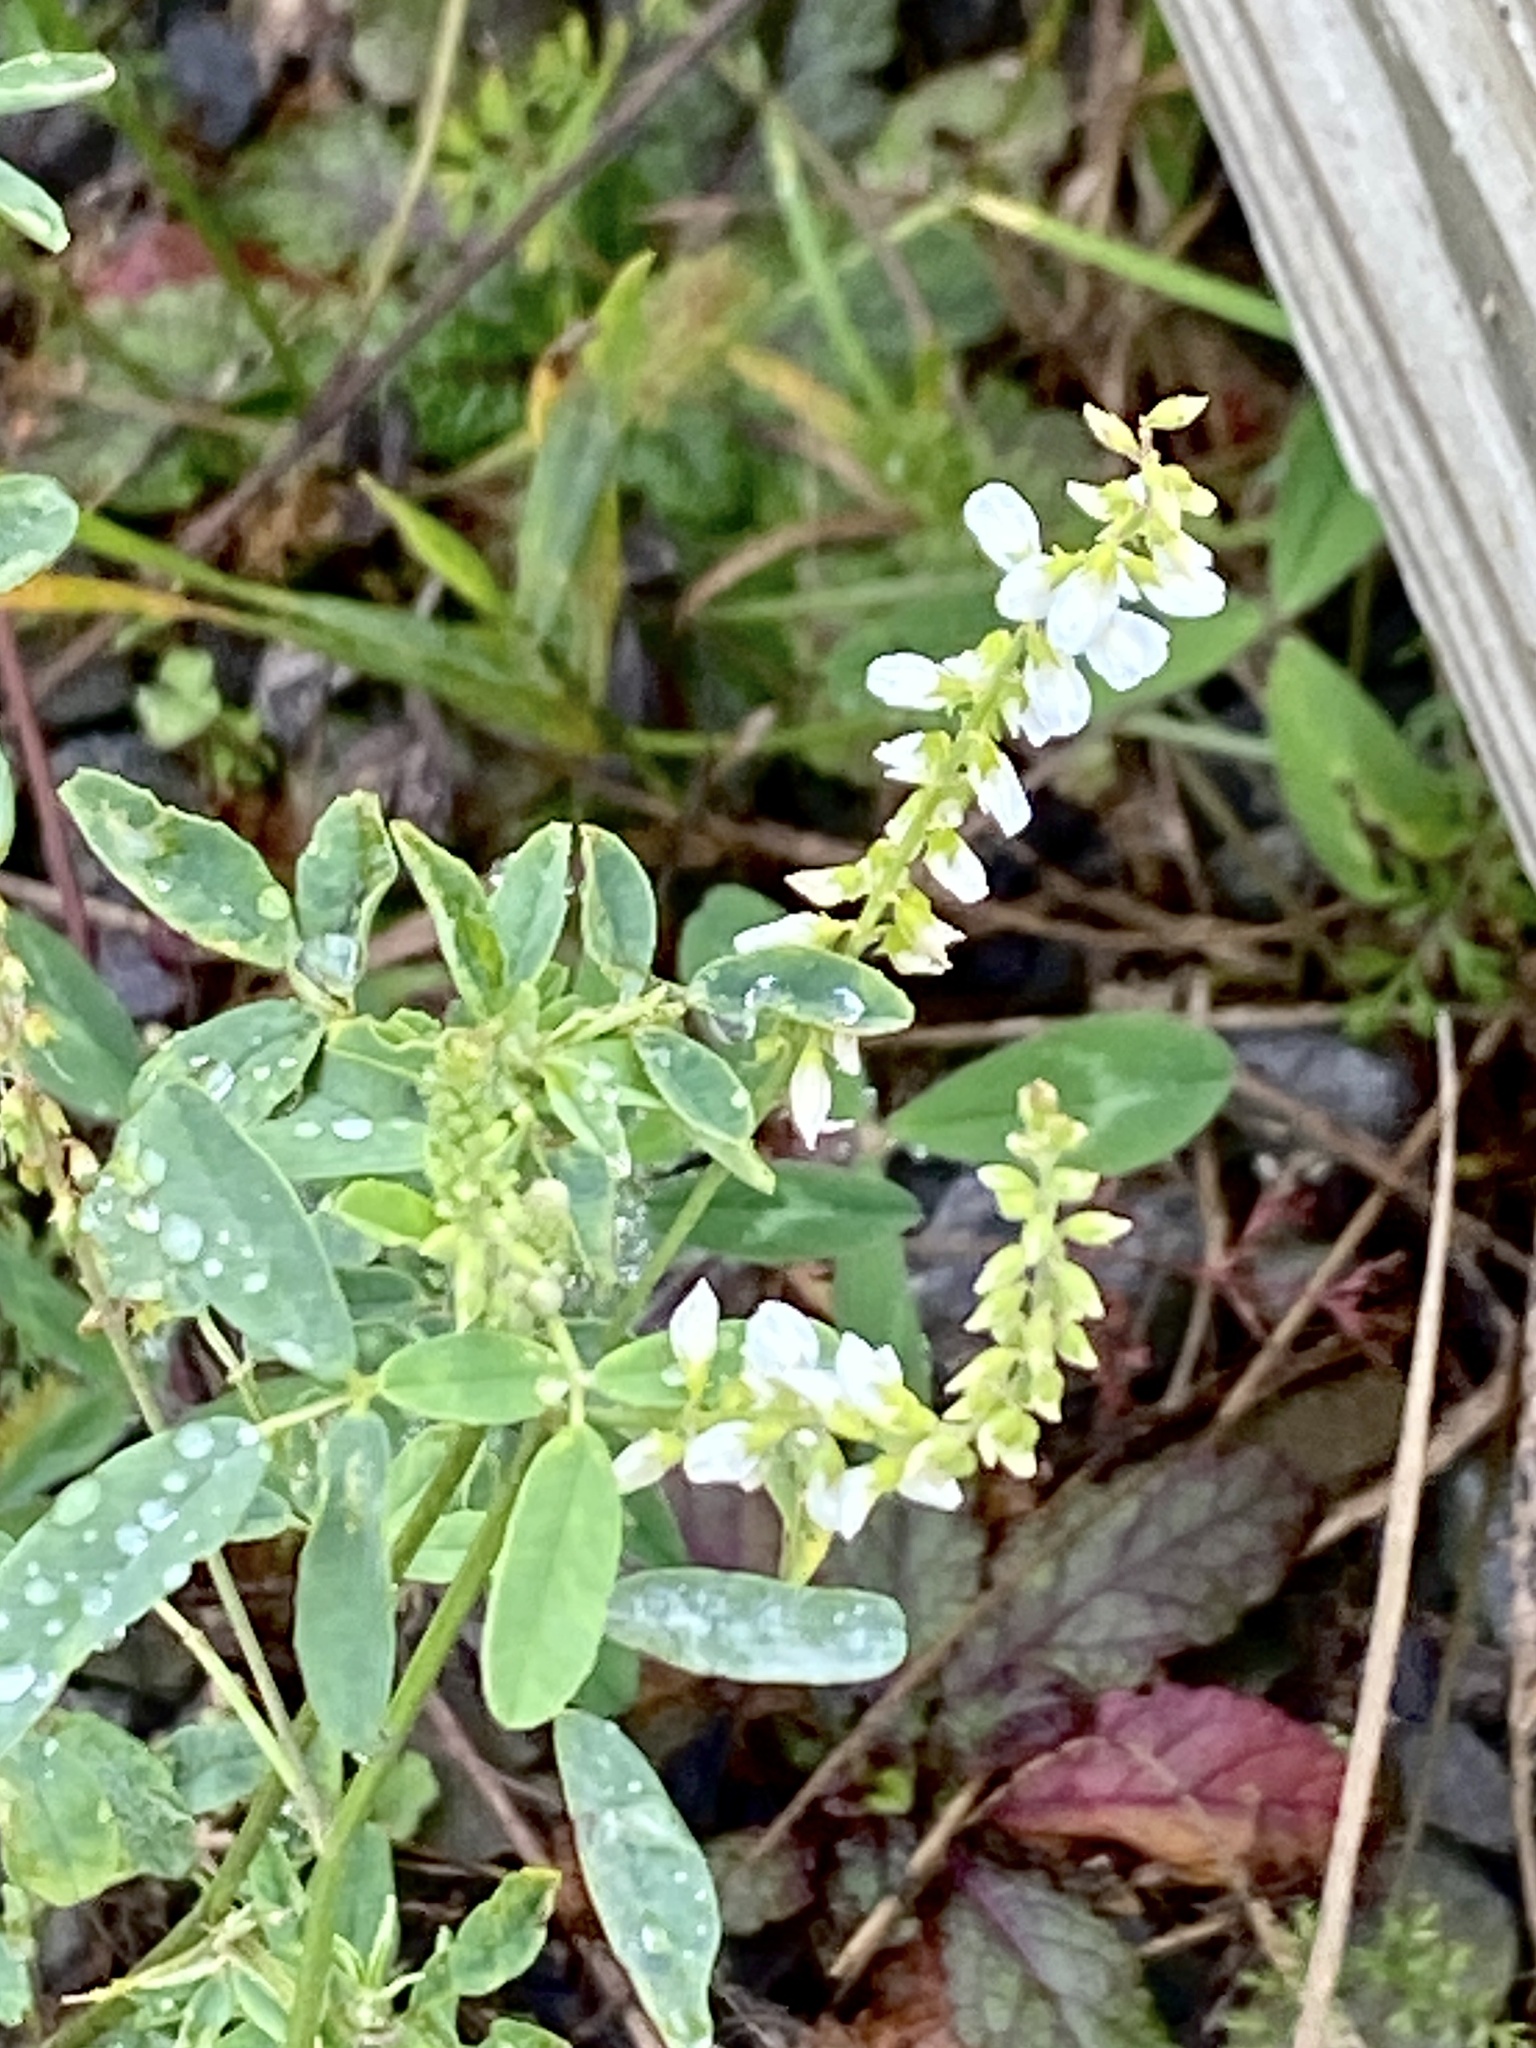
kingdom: Plantae
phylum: Tracheophyta
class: Magnoliopsida
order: Fabales
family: Fabaceae
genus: Melilotus
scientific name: Melilotus albus
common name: White melilot
